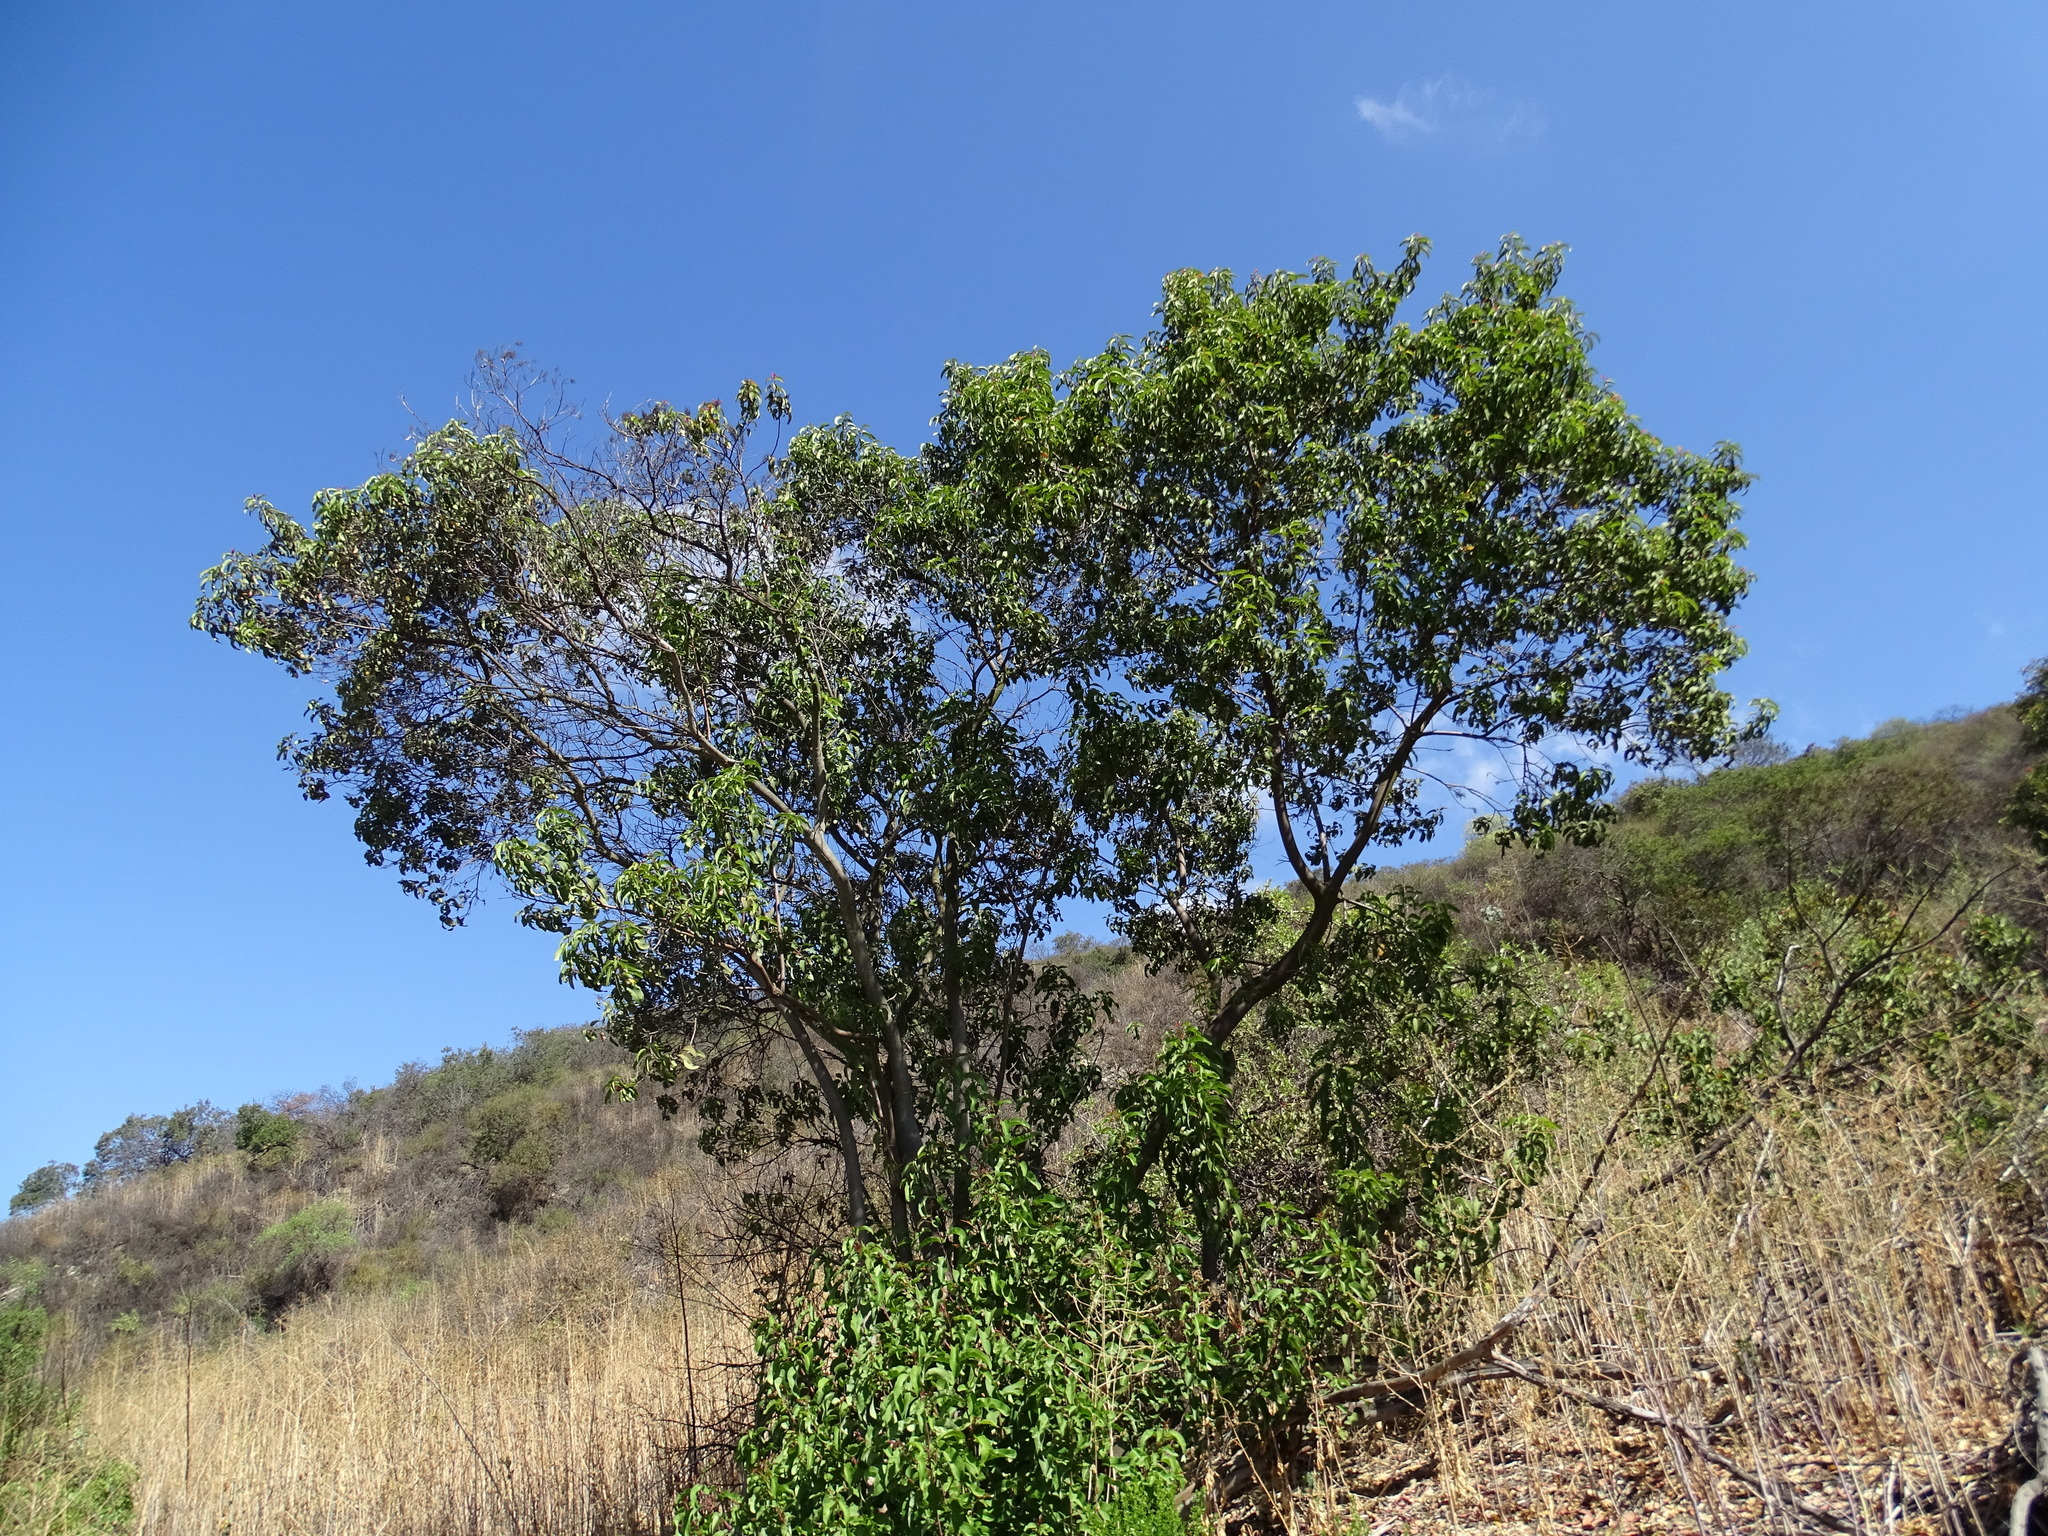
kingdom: Plantae
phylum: Tracheophyta
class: Magnoliopsida
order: Sapindales
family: Anacardiaceae
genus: Malosma
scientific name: Malosma laurina
